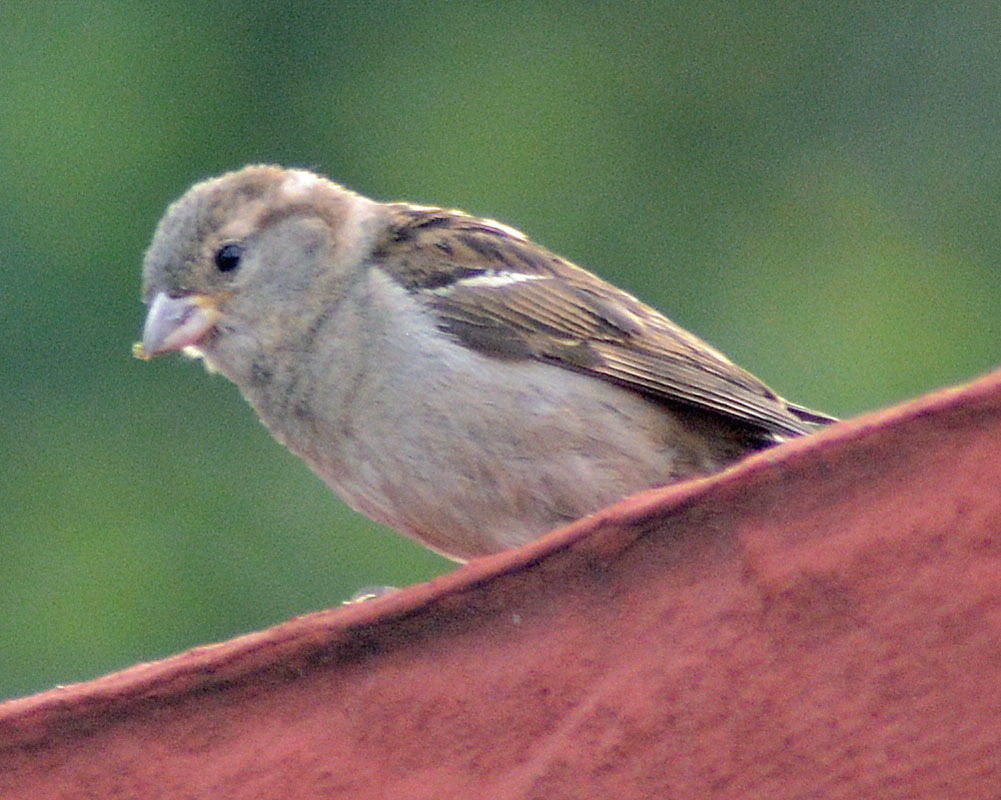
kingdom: Animalia
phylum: Chordata
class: Aves
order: Passeriformes
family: Passeridae
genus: Passer
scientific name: Passer domesticus
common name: House sparrow
